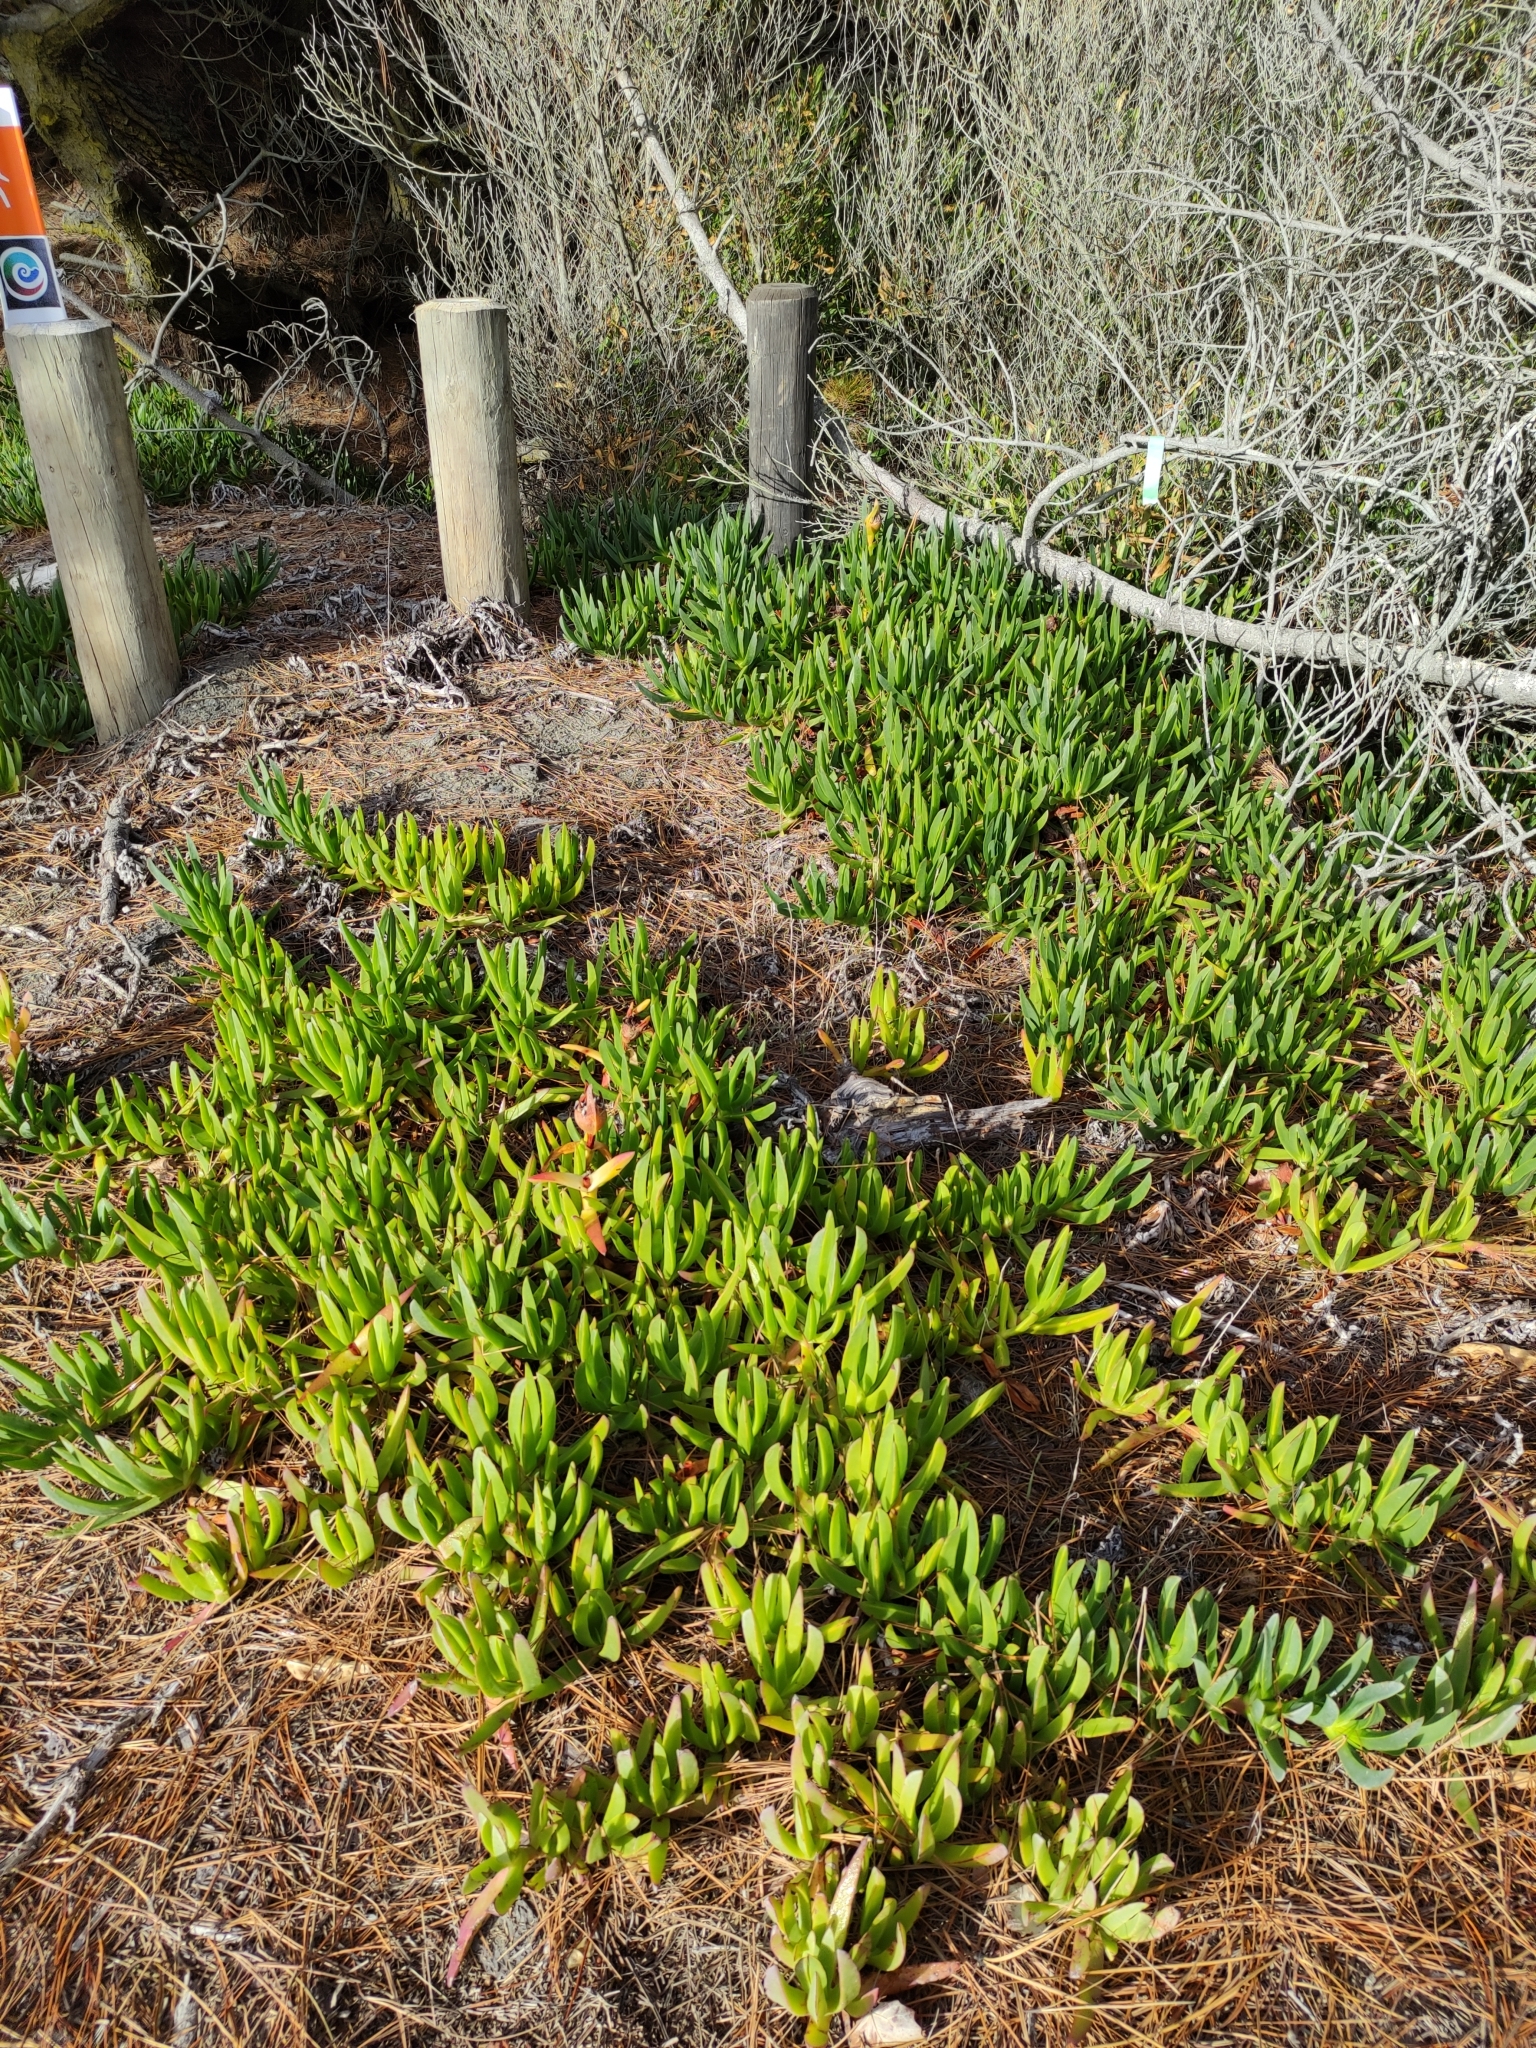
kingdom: Plantae
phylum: Tracheophyta
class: Magnoliopsida
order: Caryophyllales
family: Aizoaceae
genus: Carpobrotus
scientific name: Carpobrotus
